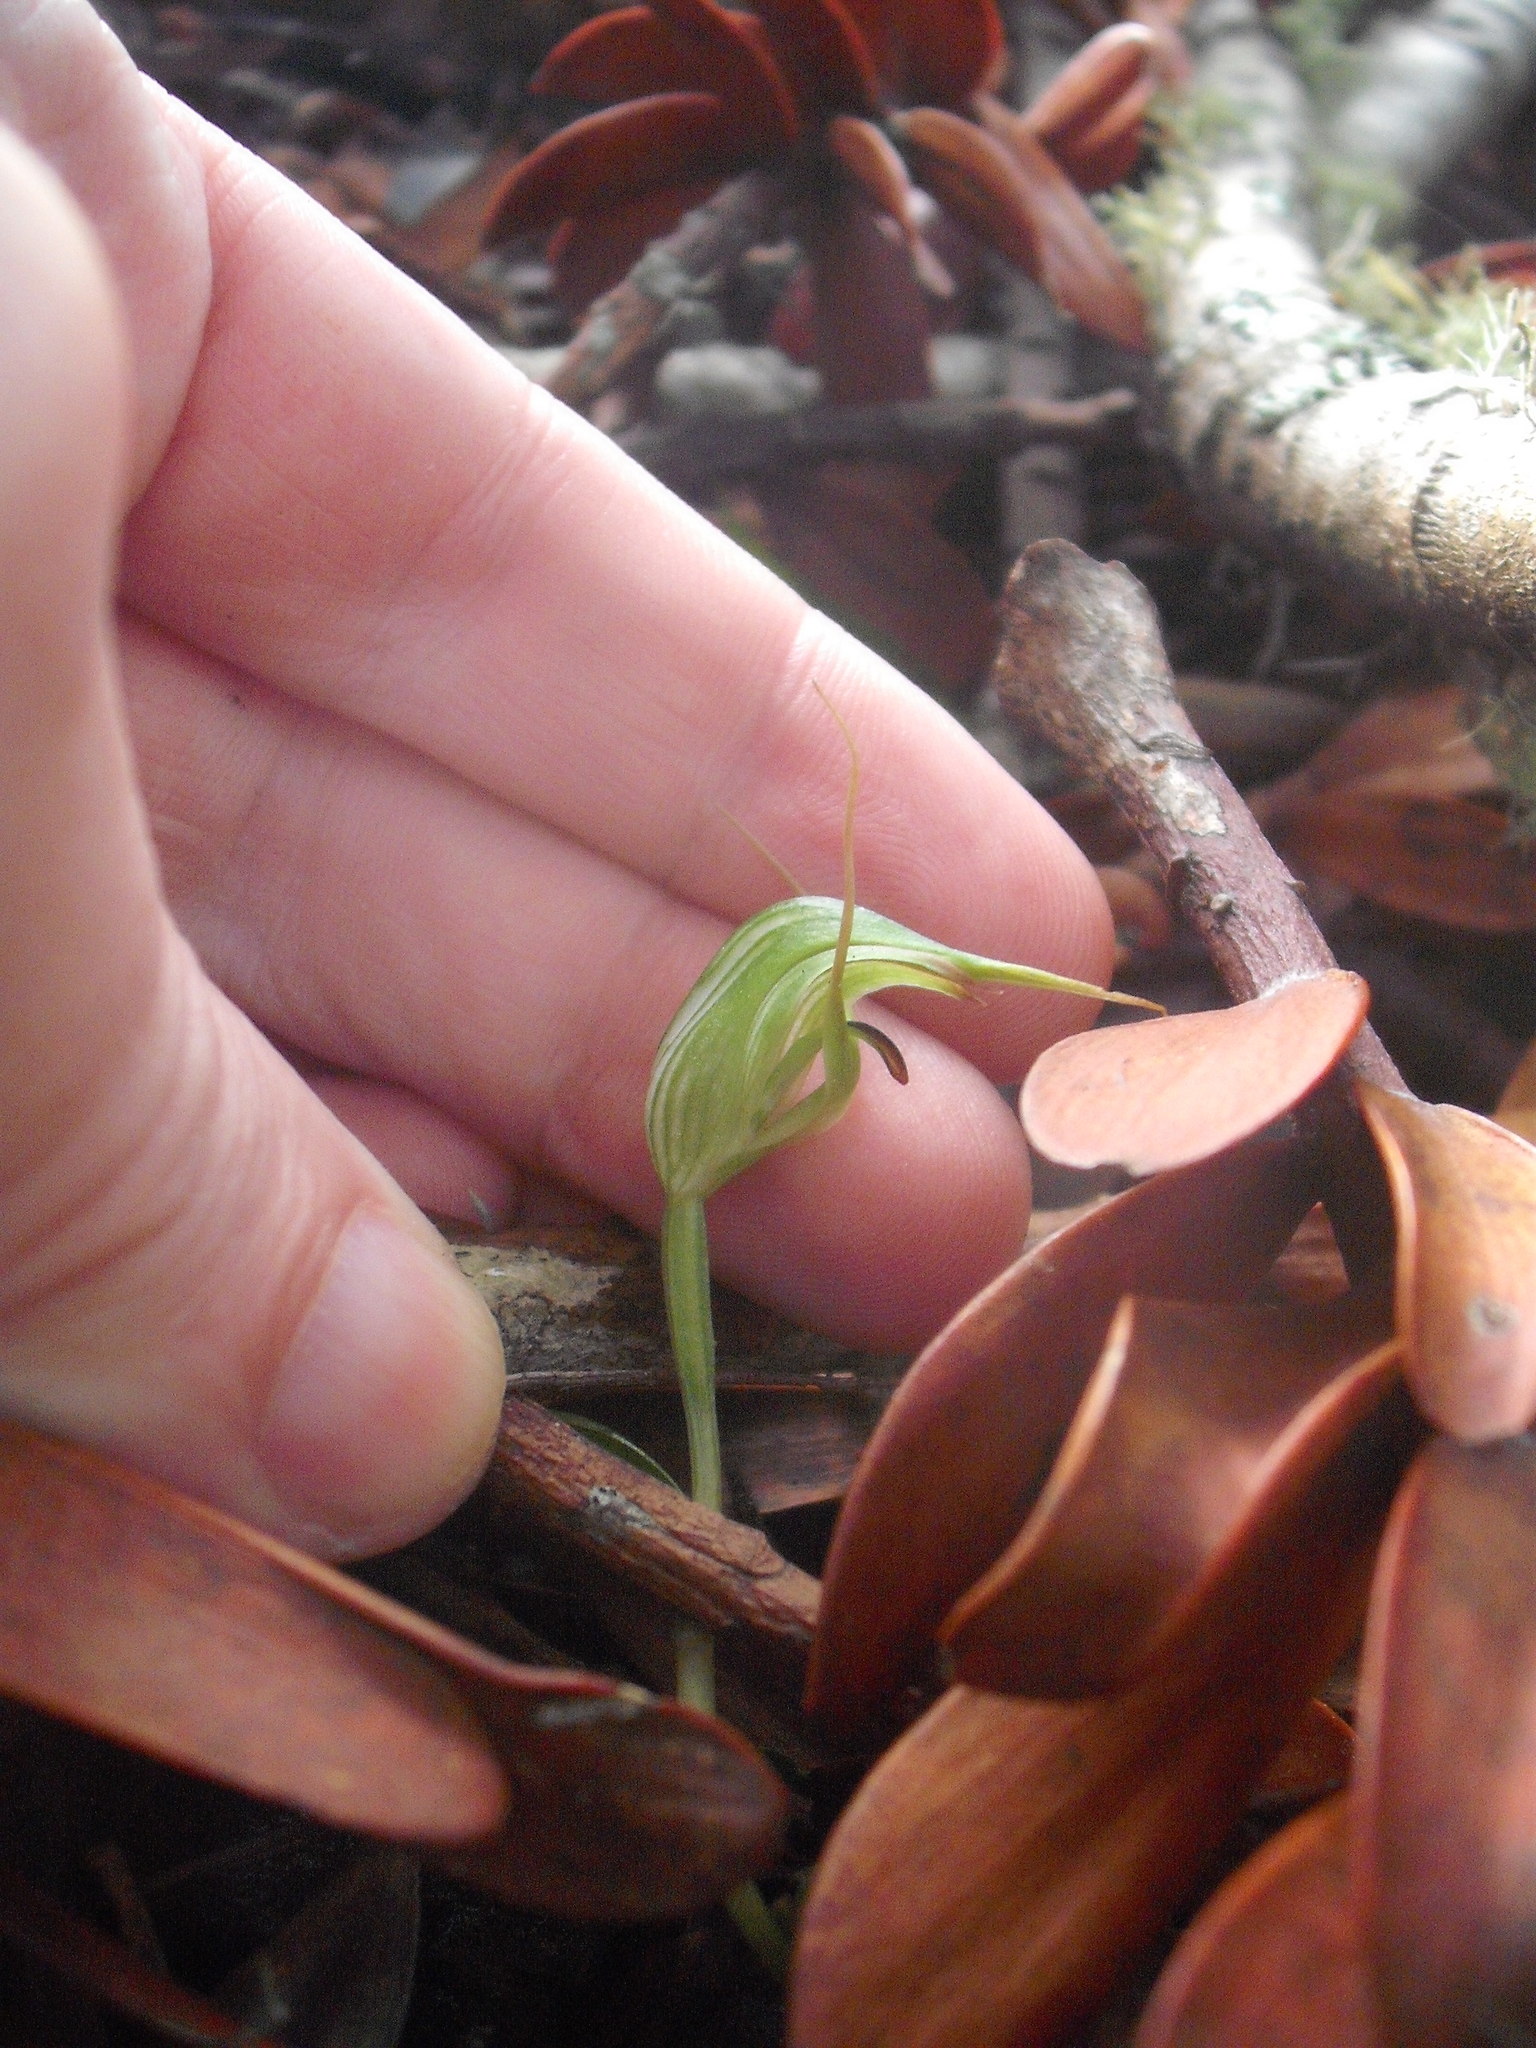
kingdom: Plantae
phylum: Tracheophyta
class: Liliopsida
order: Asparagales
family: Orchidaceae
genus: Pterostylis
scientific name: Pterostylis agathicola
